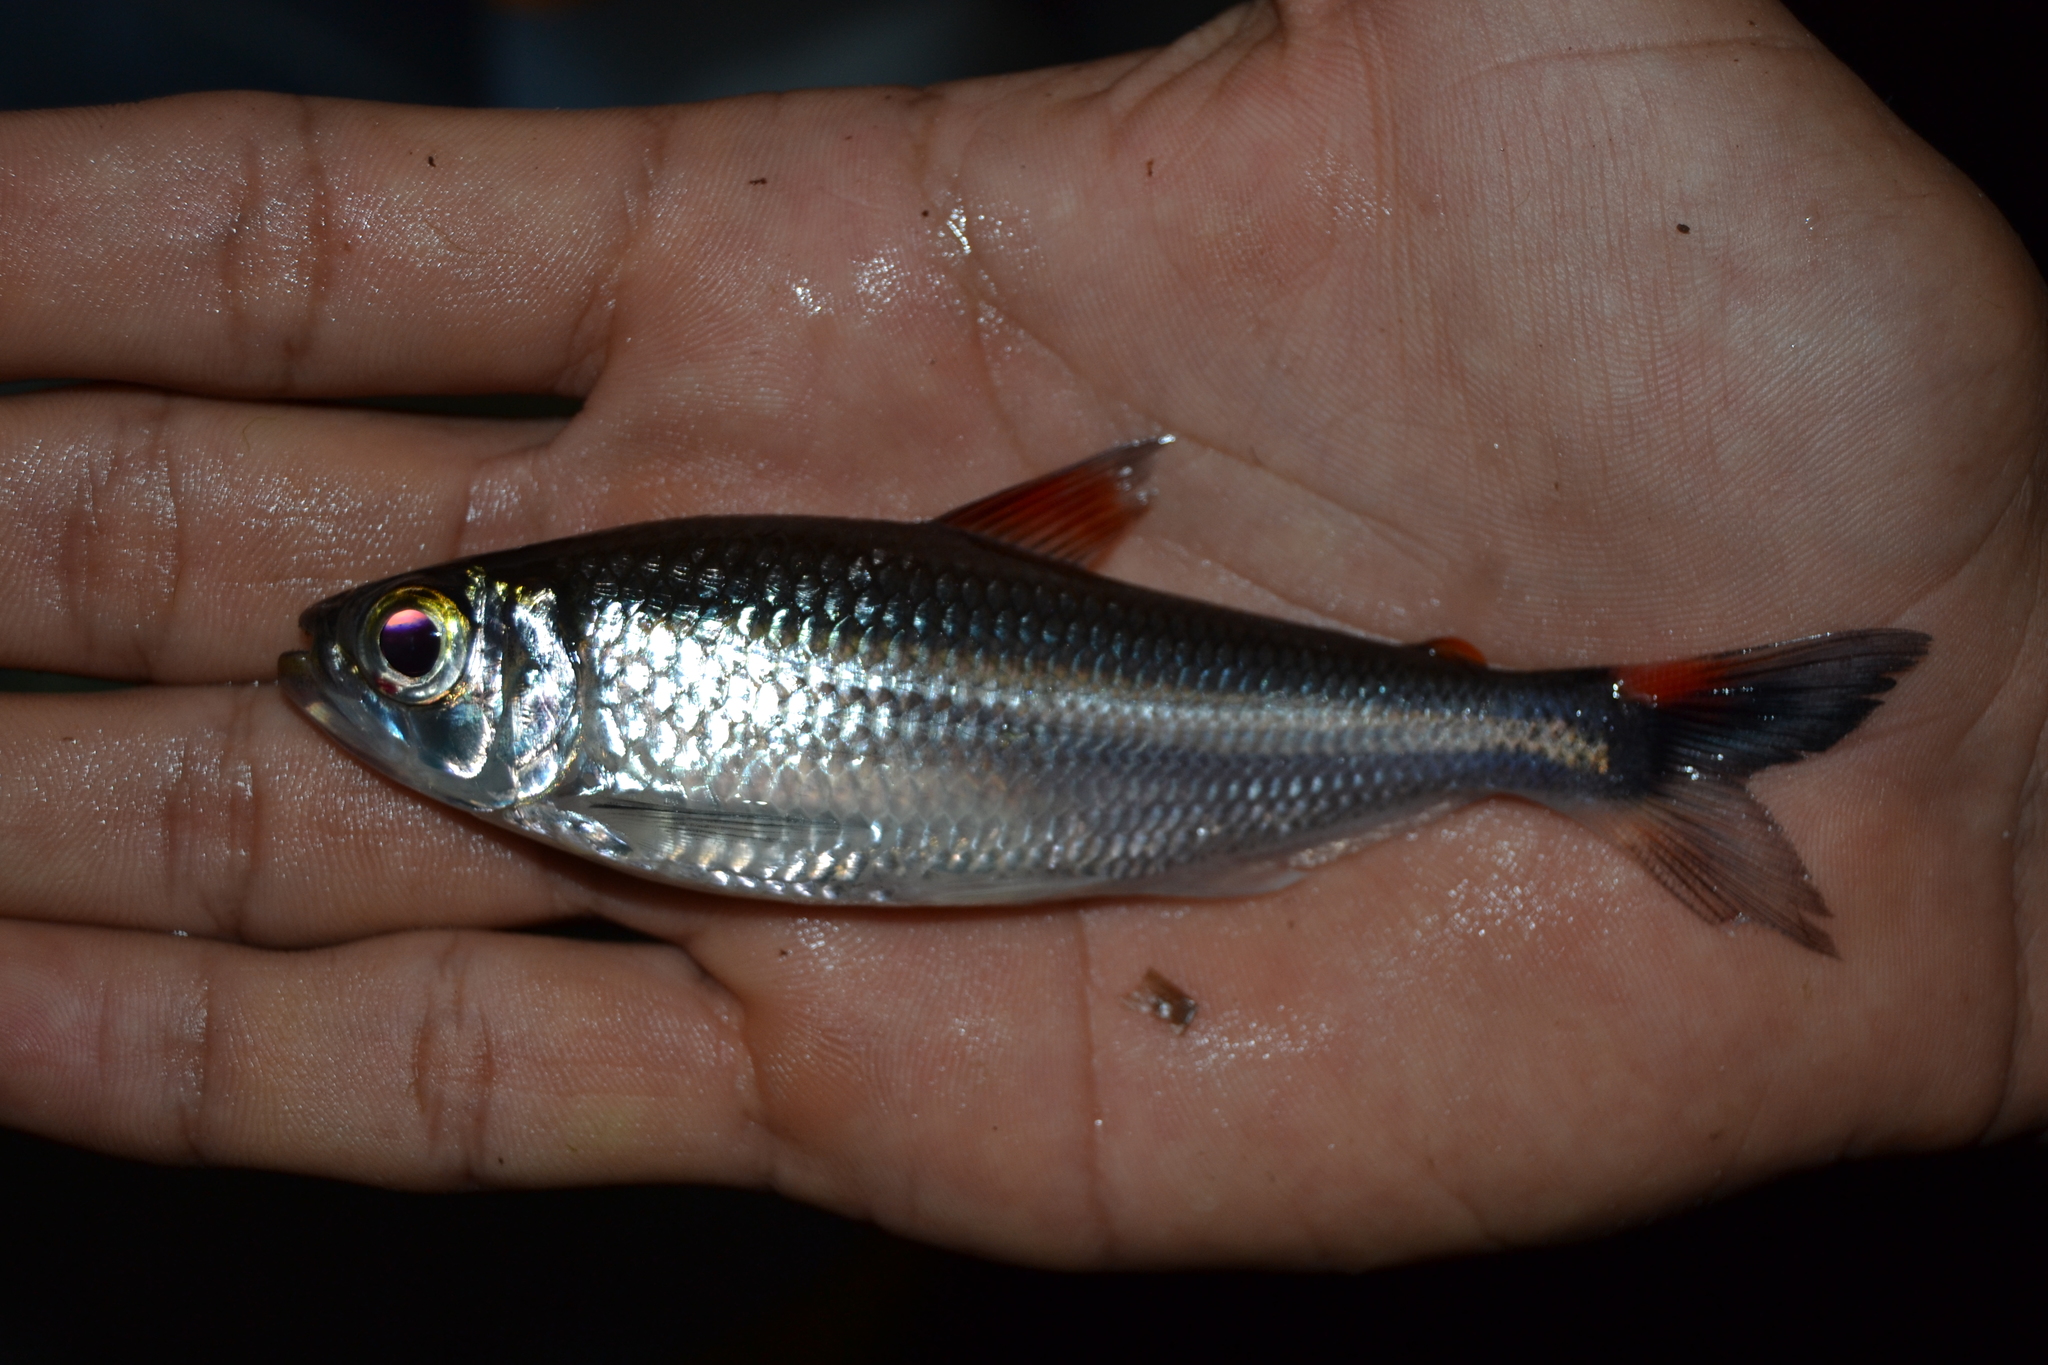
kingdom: Animalia
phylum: Chordata
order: Characiformes
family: Iguanodectidae
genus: Bryconops
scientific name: Bryconops giacopinii
